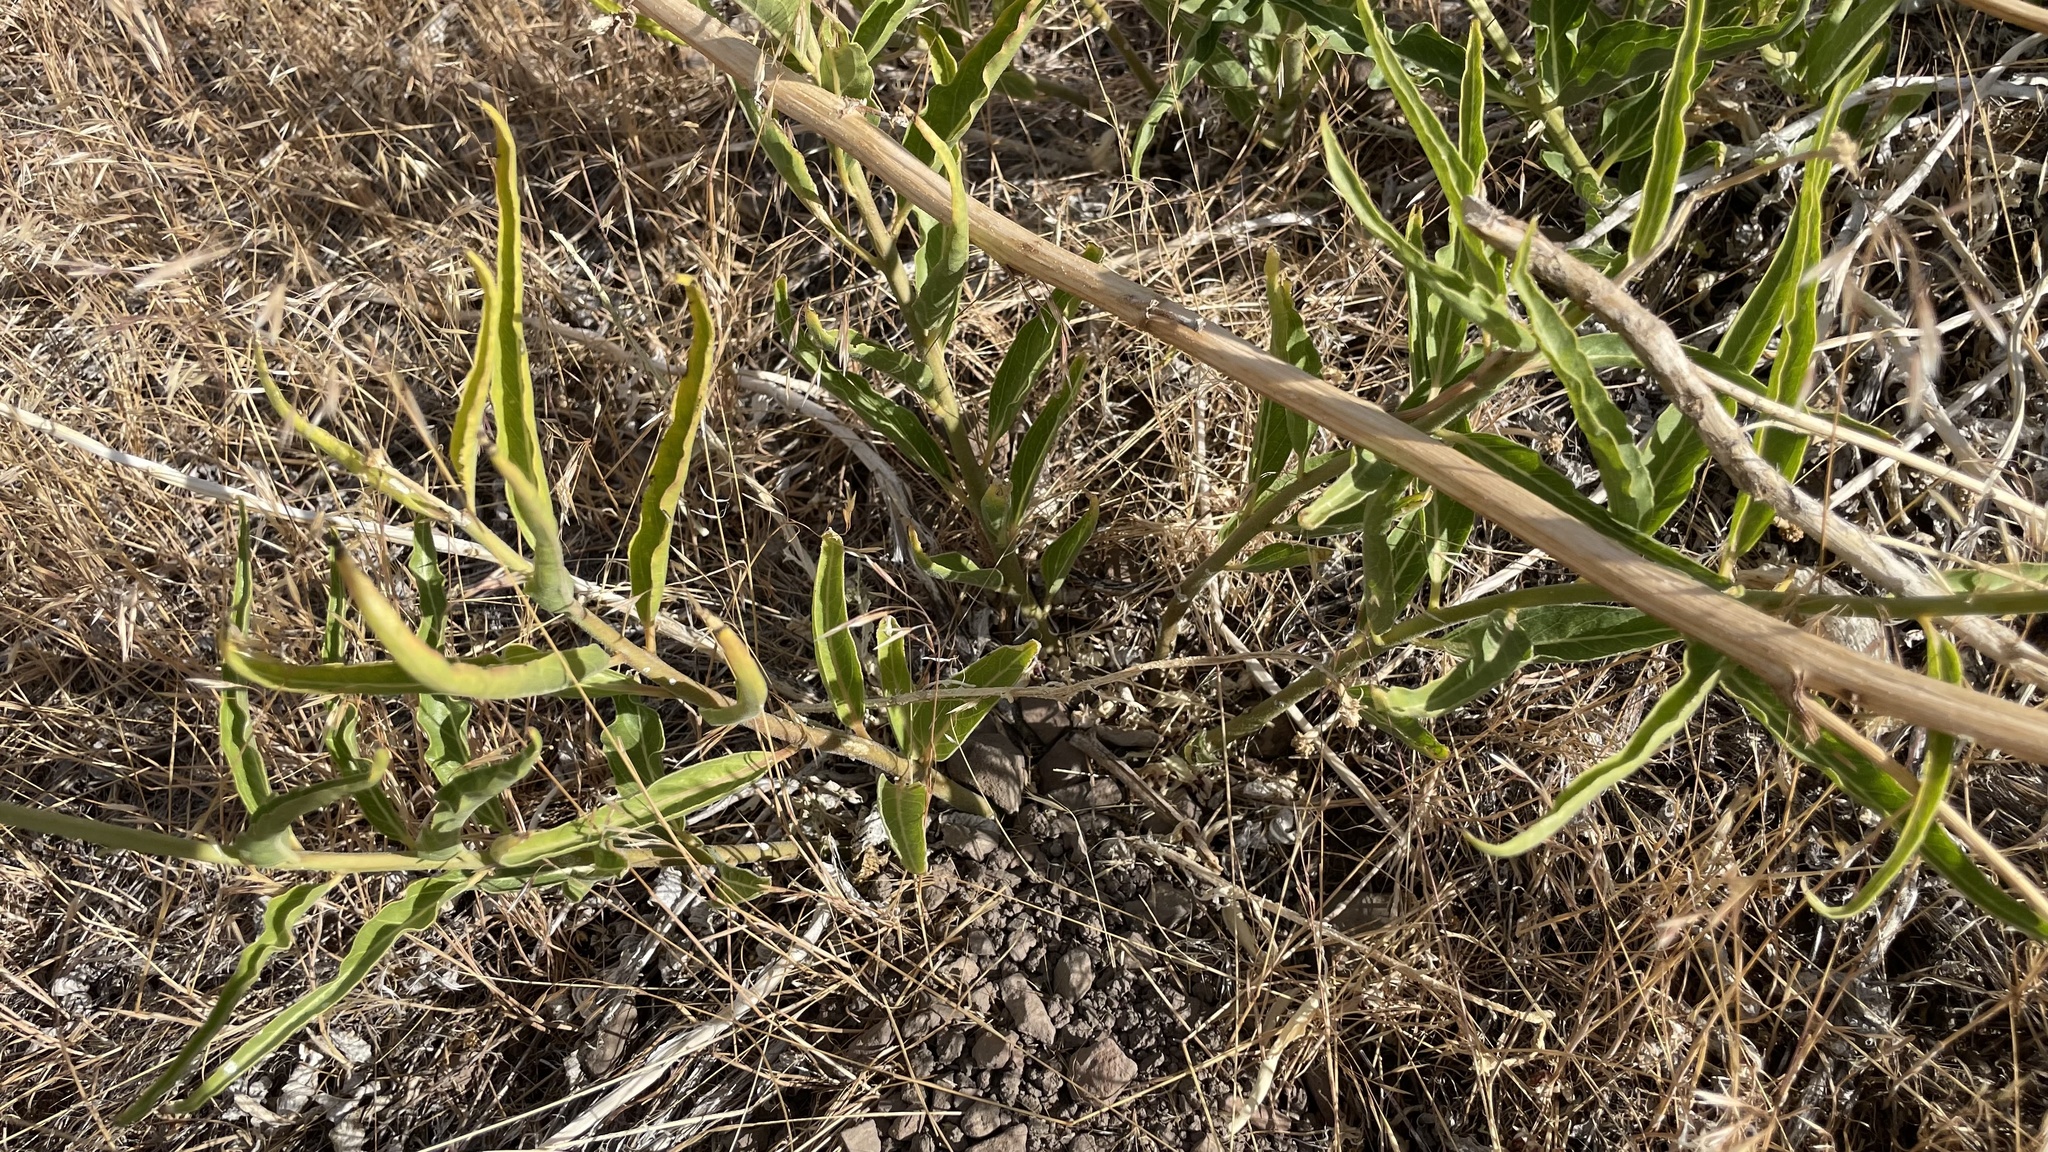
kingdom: Plantae
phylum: Tracheophyta
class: Magnoliopsida
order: Gentianales
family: Apocynaceae
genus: Asclepias
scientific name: Asclepias asperula
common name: Antelope horns
